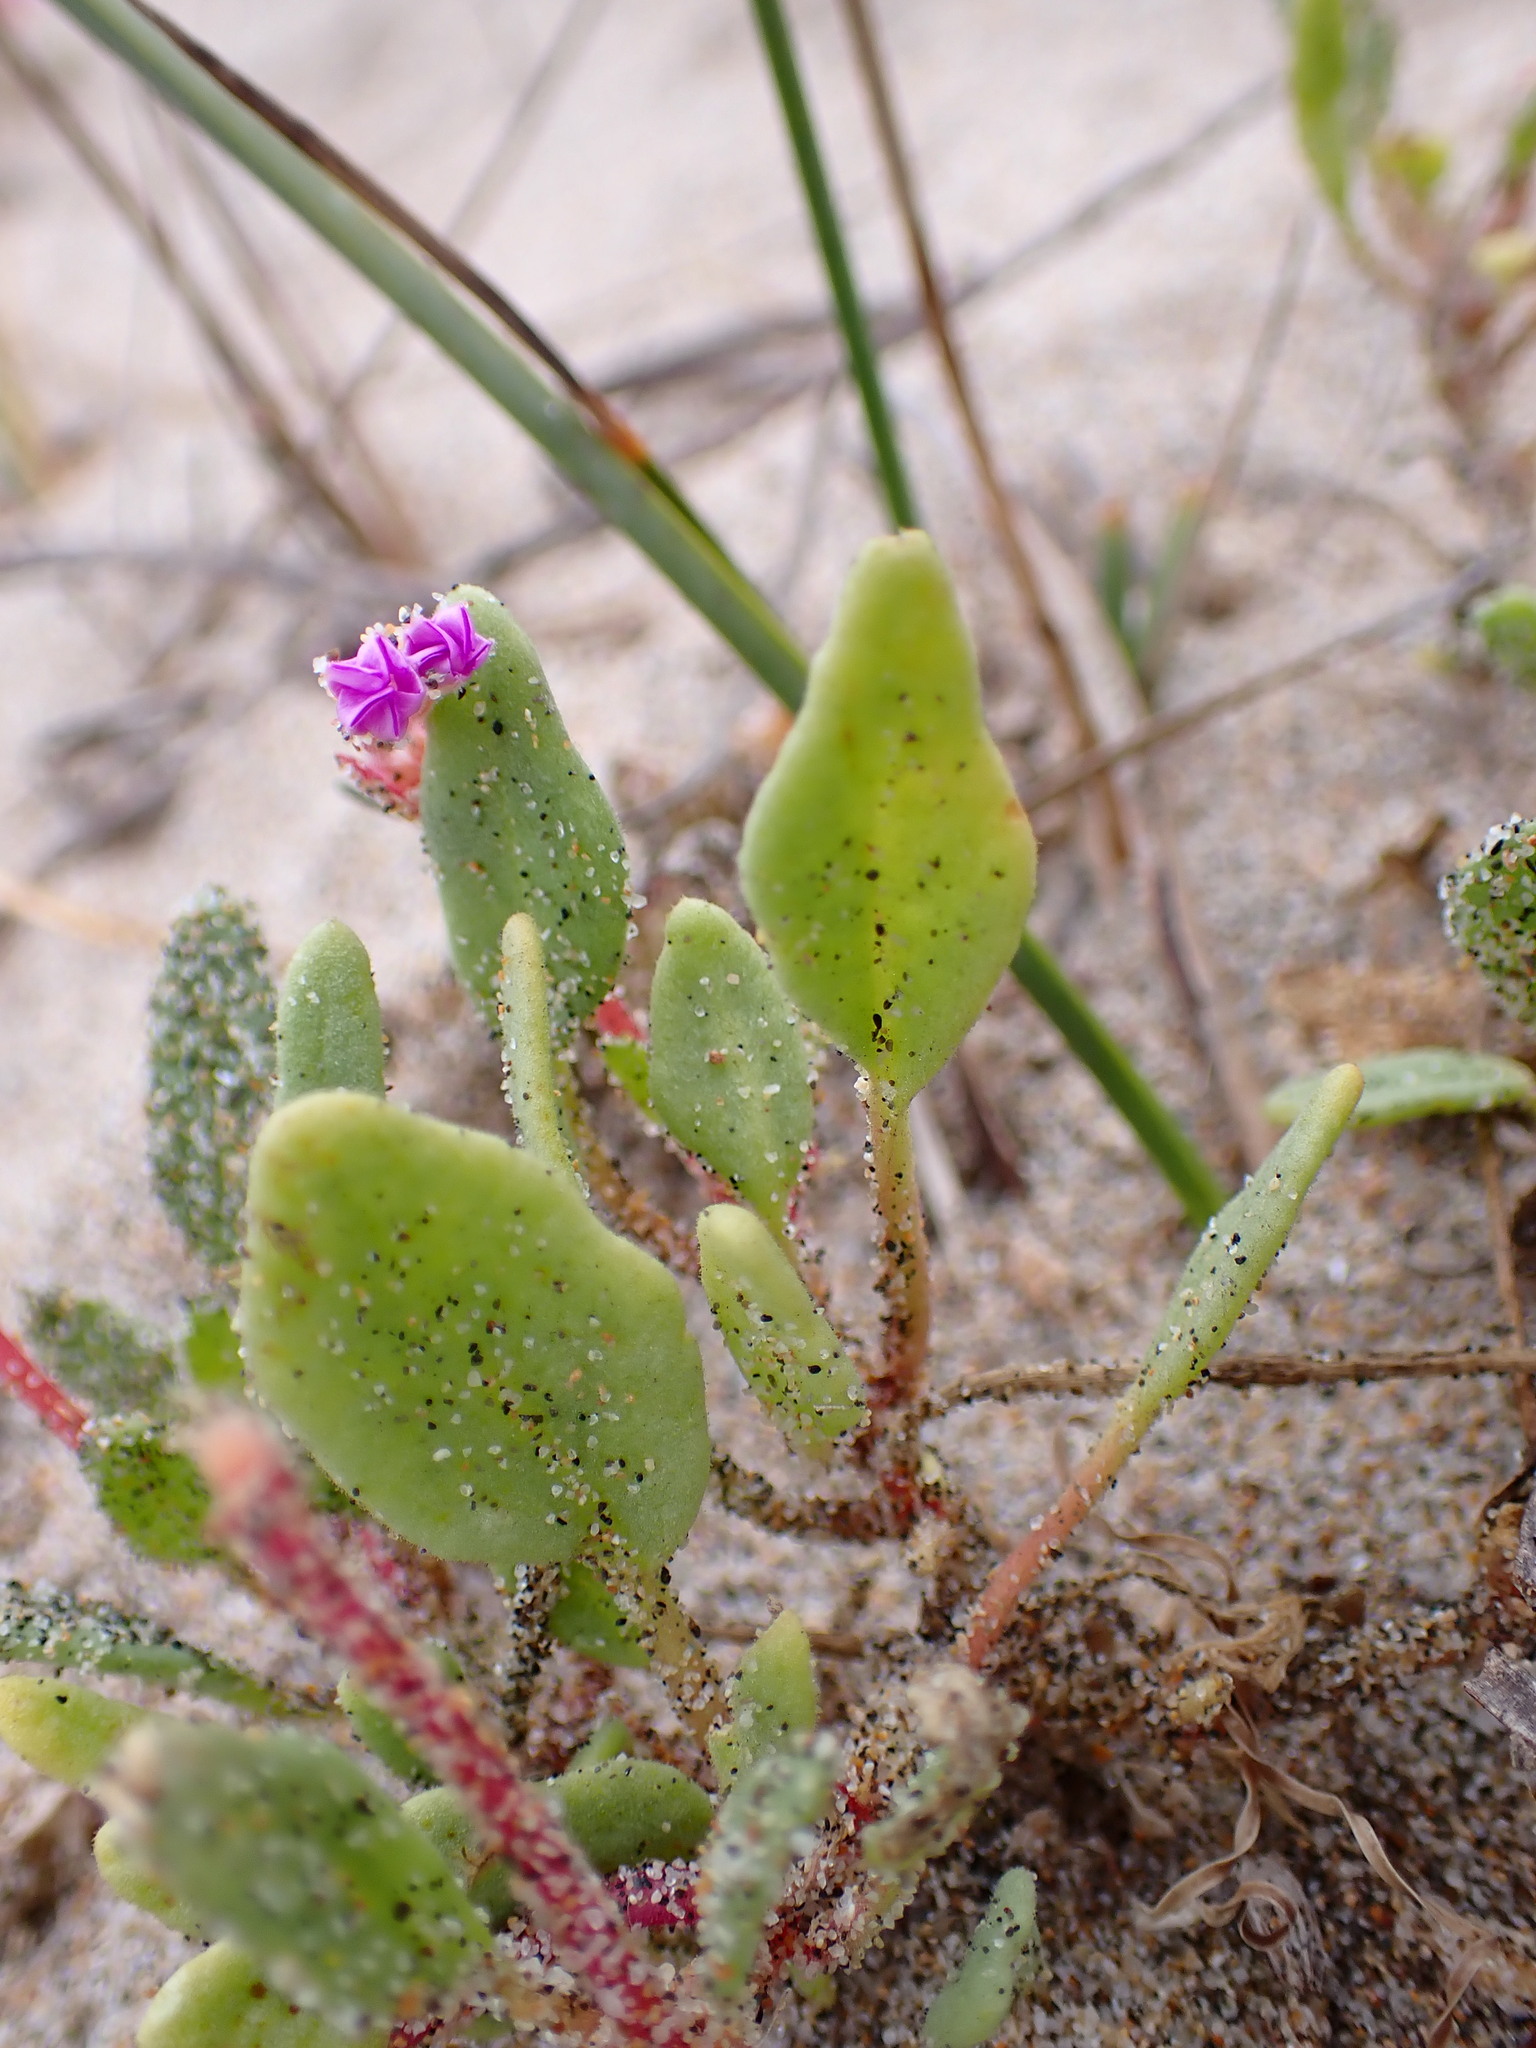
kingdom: Plantae
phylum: Tracheophyta
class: Magnoliopsida
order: Caryophyllales
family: Nyctaginaceae
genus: Abronia
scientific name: Abronia umbellata
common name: Sand-verbena
